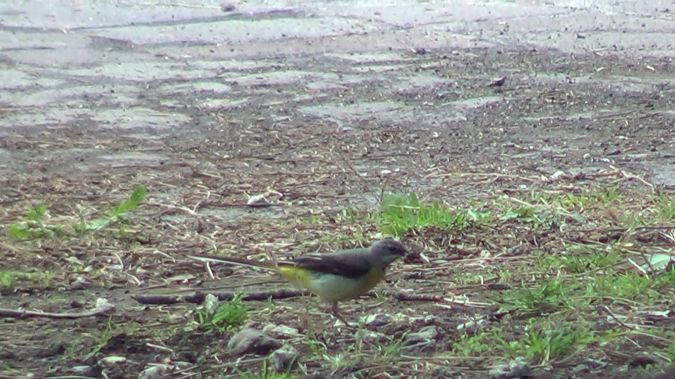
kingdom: Animalia
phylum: Chordata
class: Aves
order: Passeriformes
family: Motacillidae
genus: Motacilla
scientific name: Motacilla cinerea
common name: Grey wagtail
